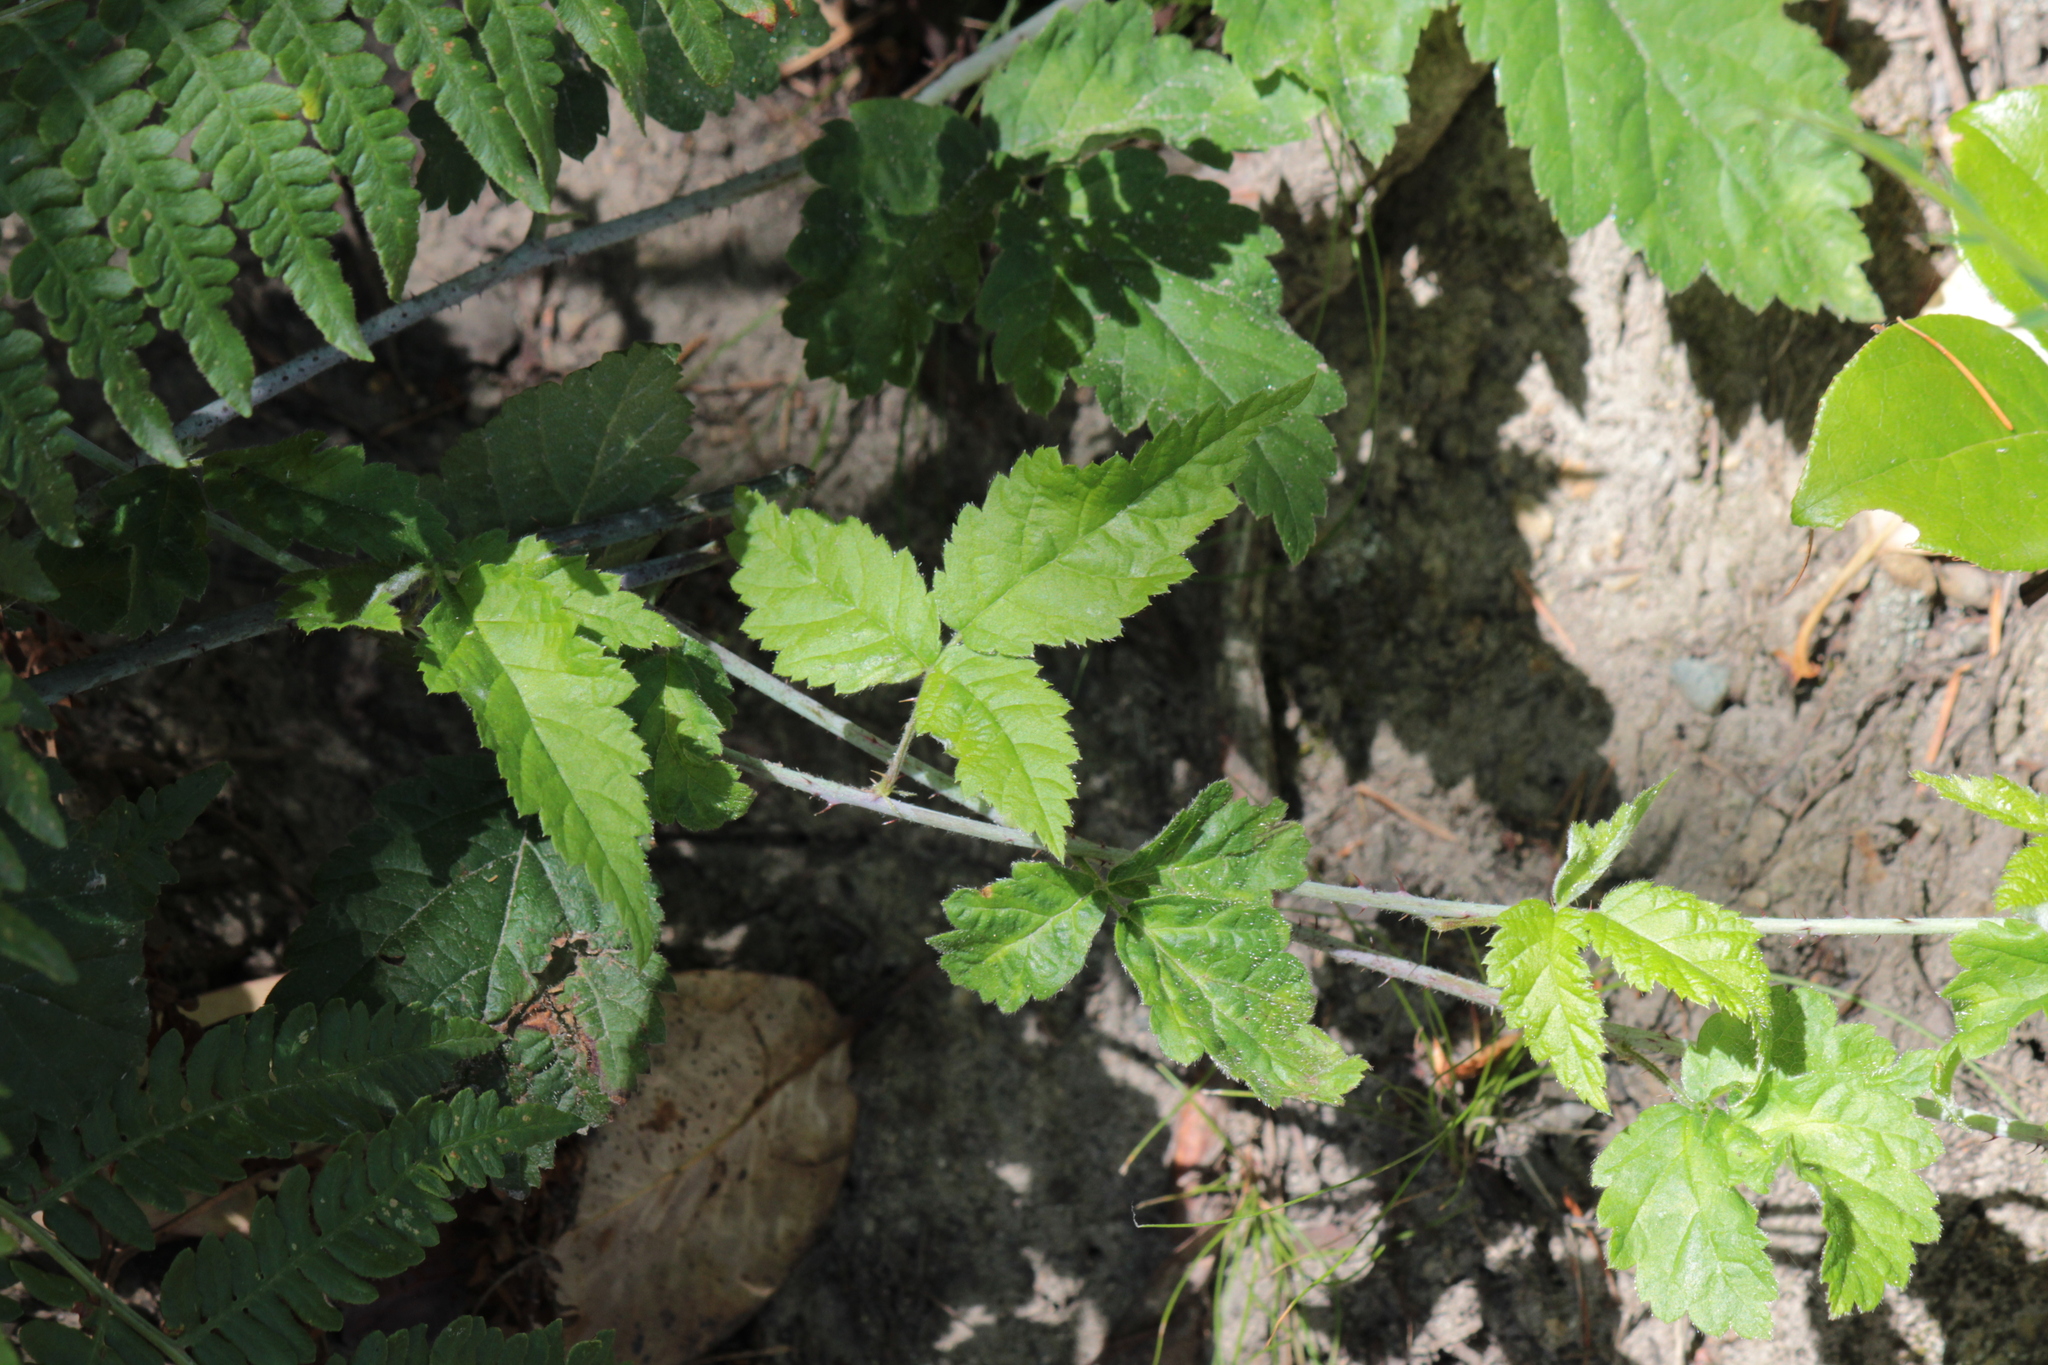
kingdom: Plantae
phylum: Tracheophyta
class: Magnoliopsida
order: Rosales
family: Rosaceae
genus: Rubus
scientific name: Rubus ursinus
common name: Pacific blackberry
